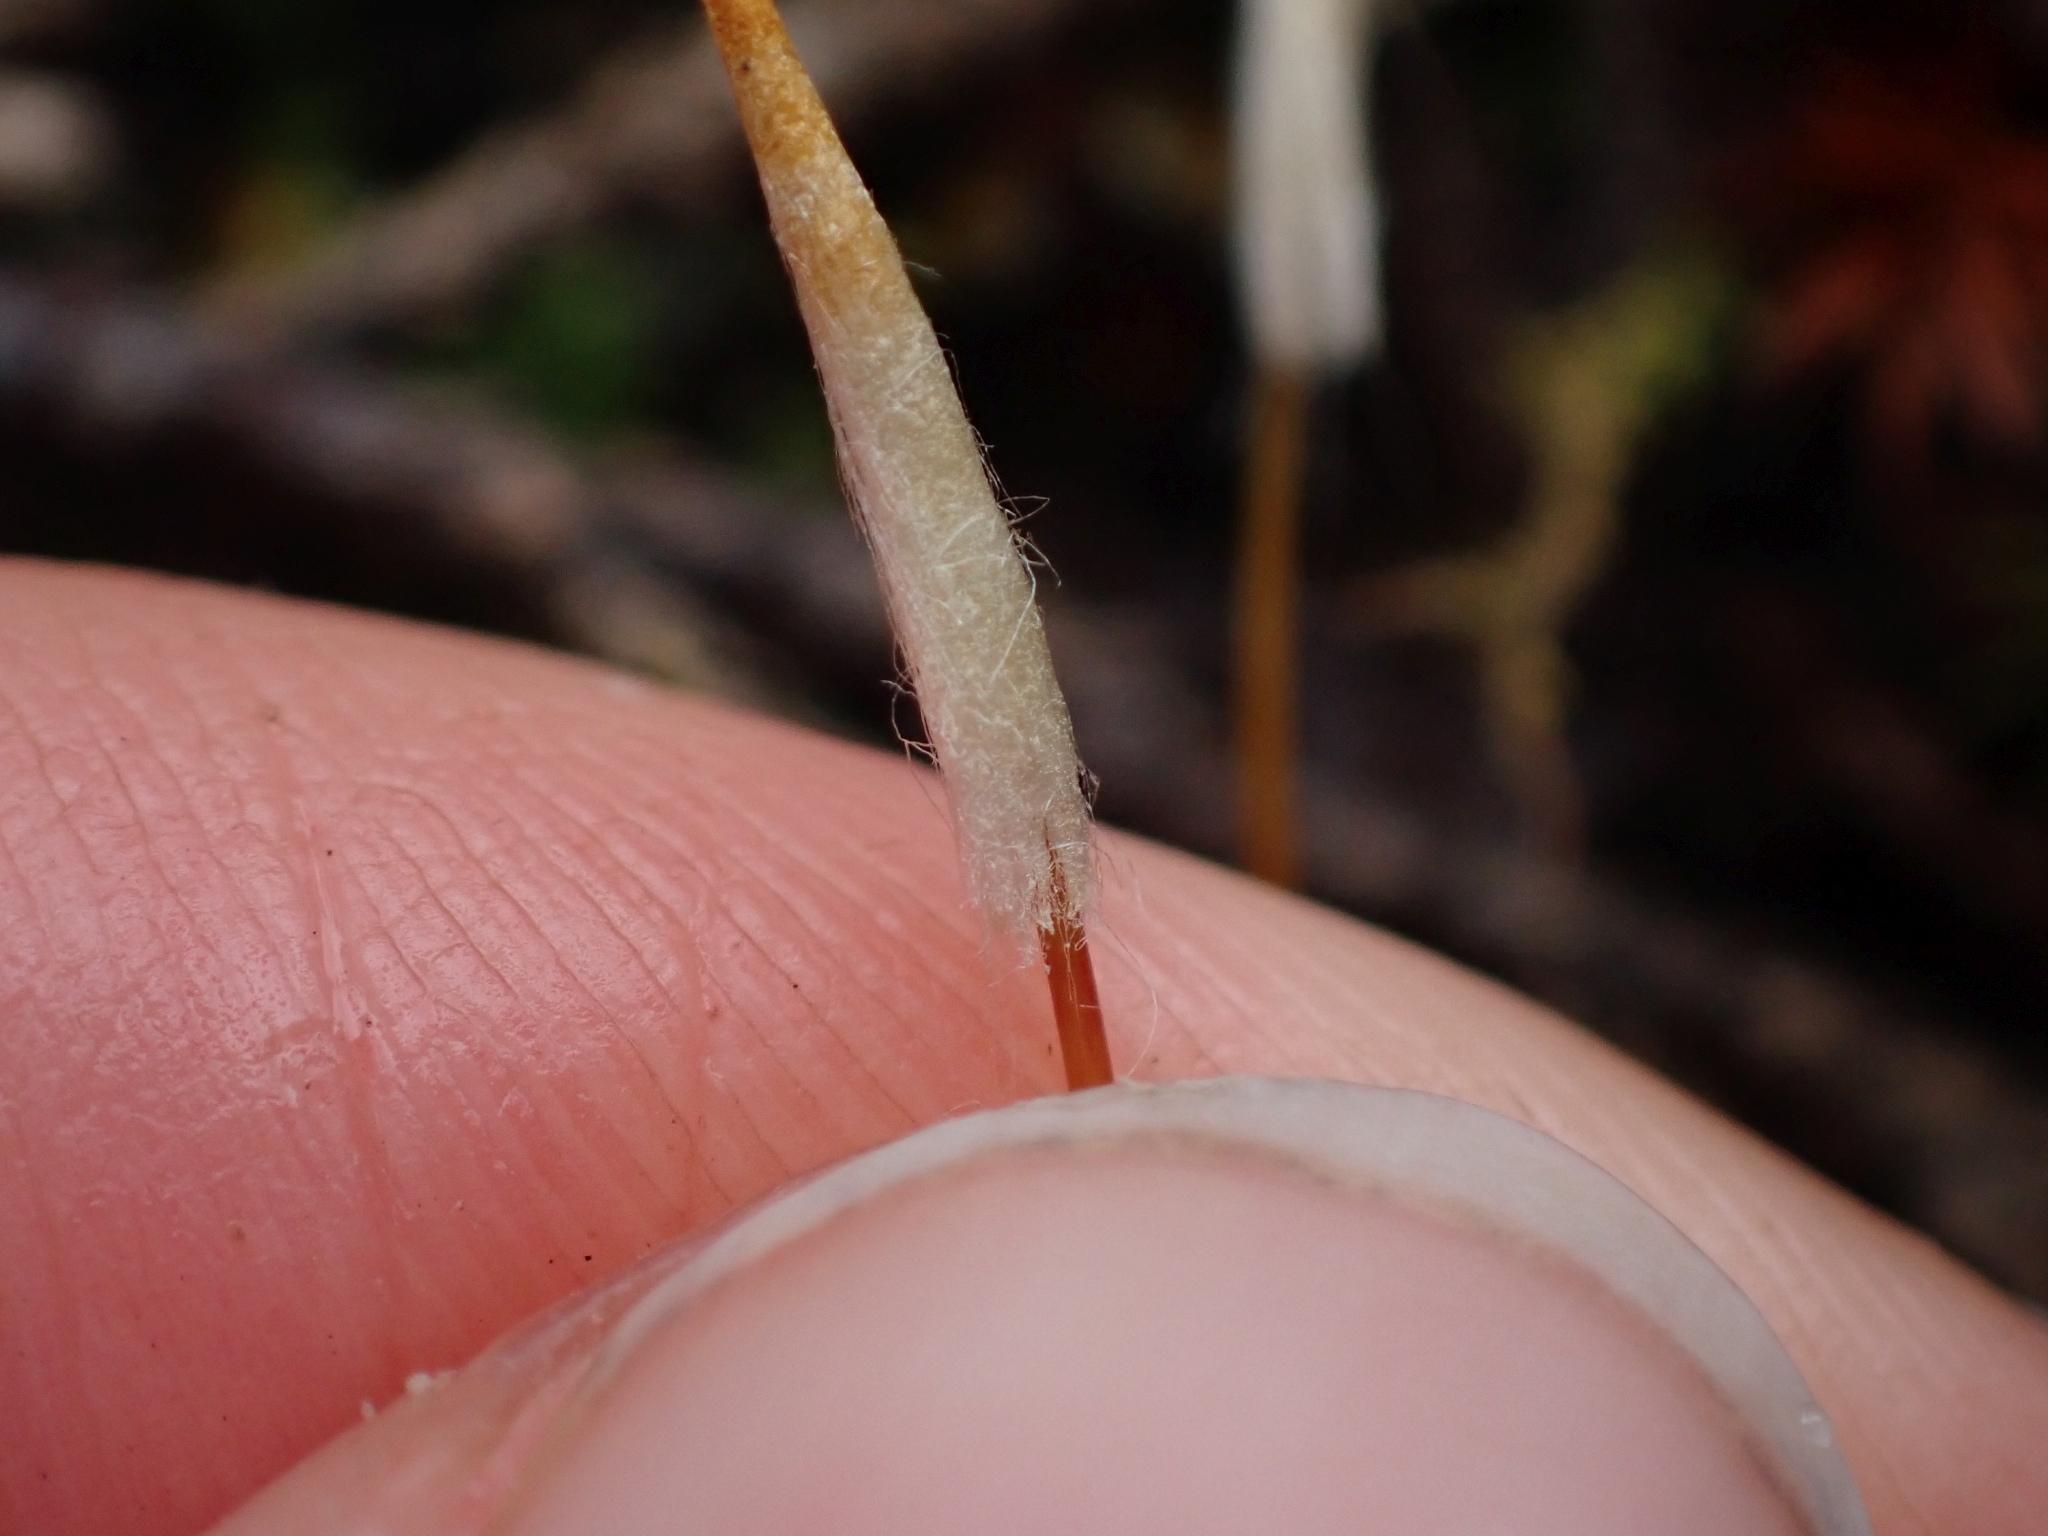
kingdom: Plantae
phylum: Bryophyta
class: Polytrichopsida
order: Polytrichales
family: Polytrichaceae
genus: Polytrichum
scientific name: Polytrichum juniperinum
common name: Juniper haircap moss
